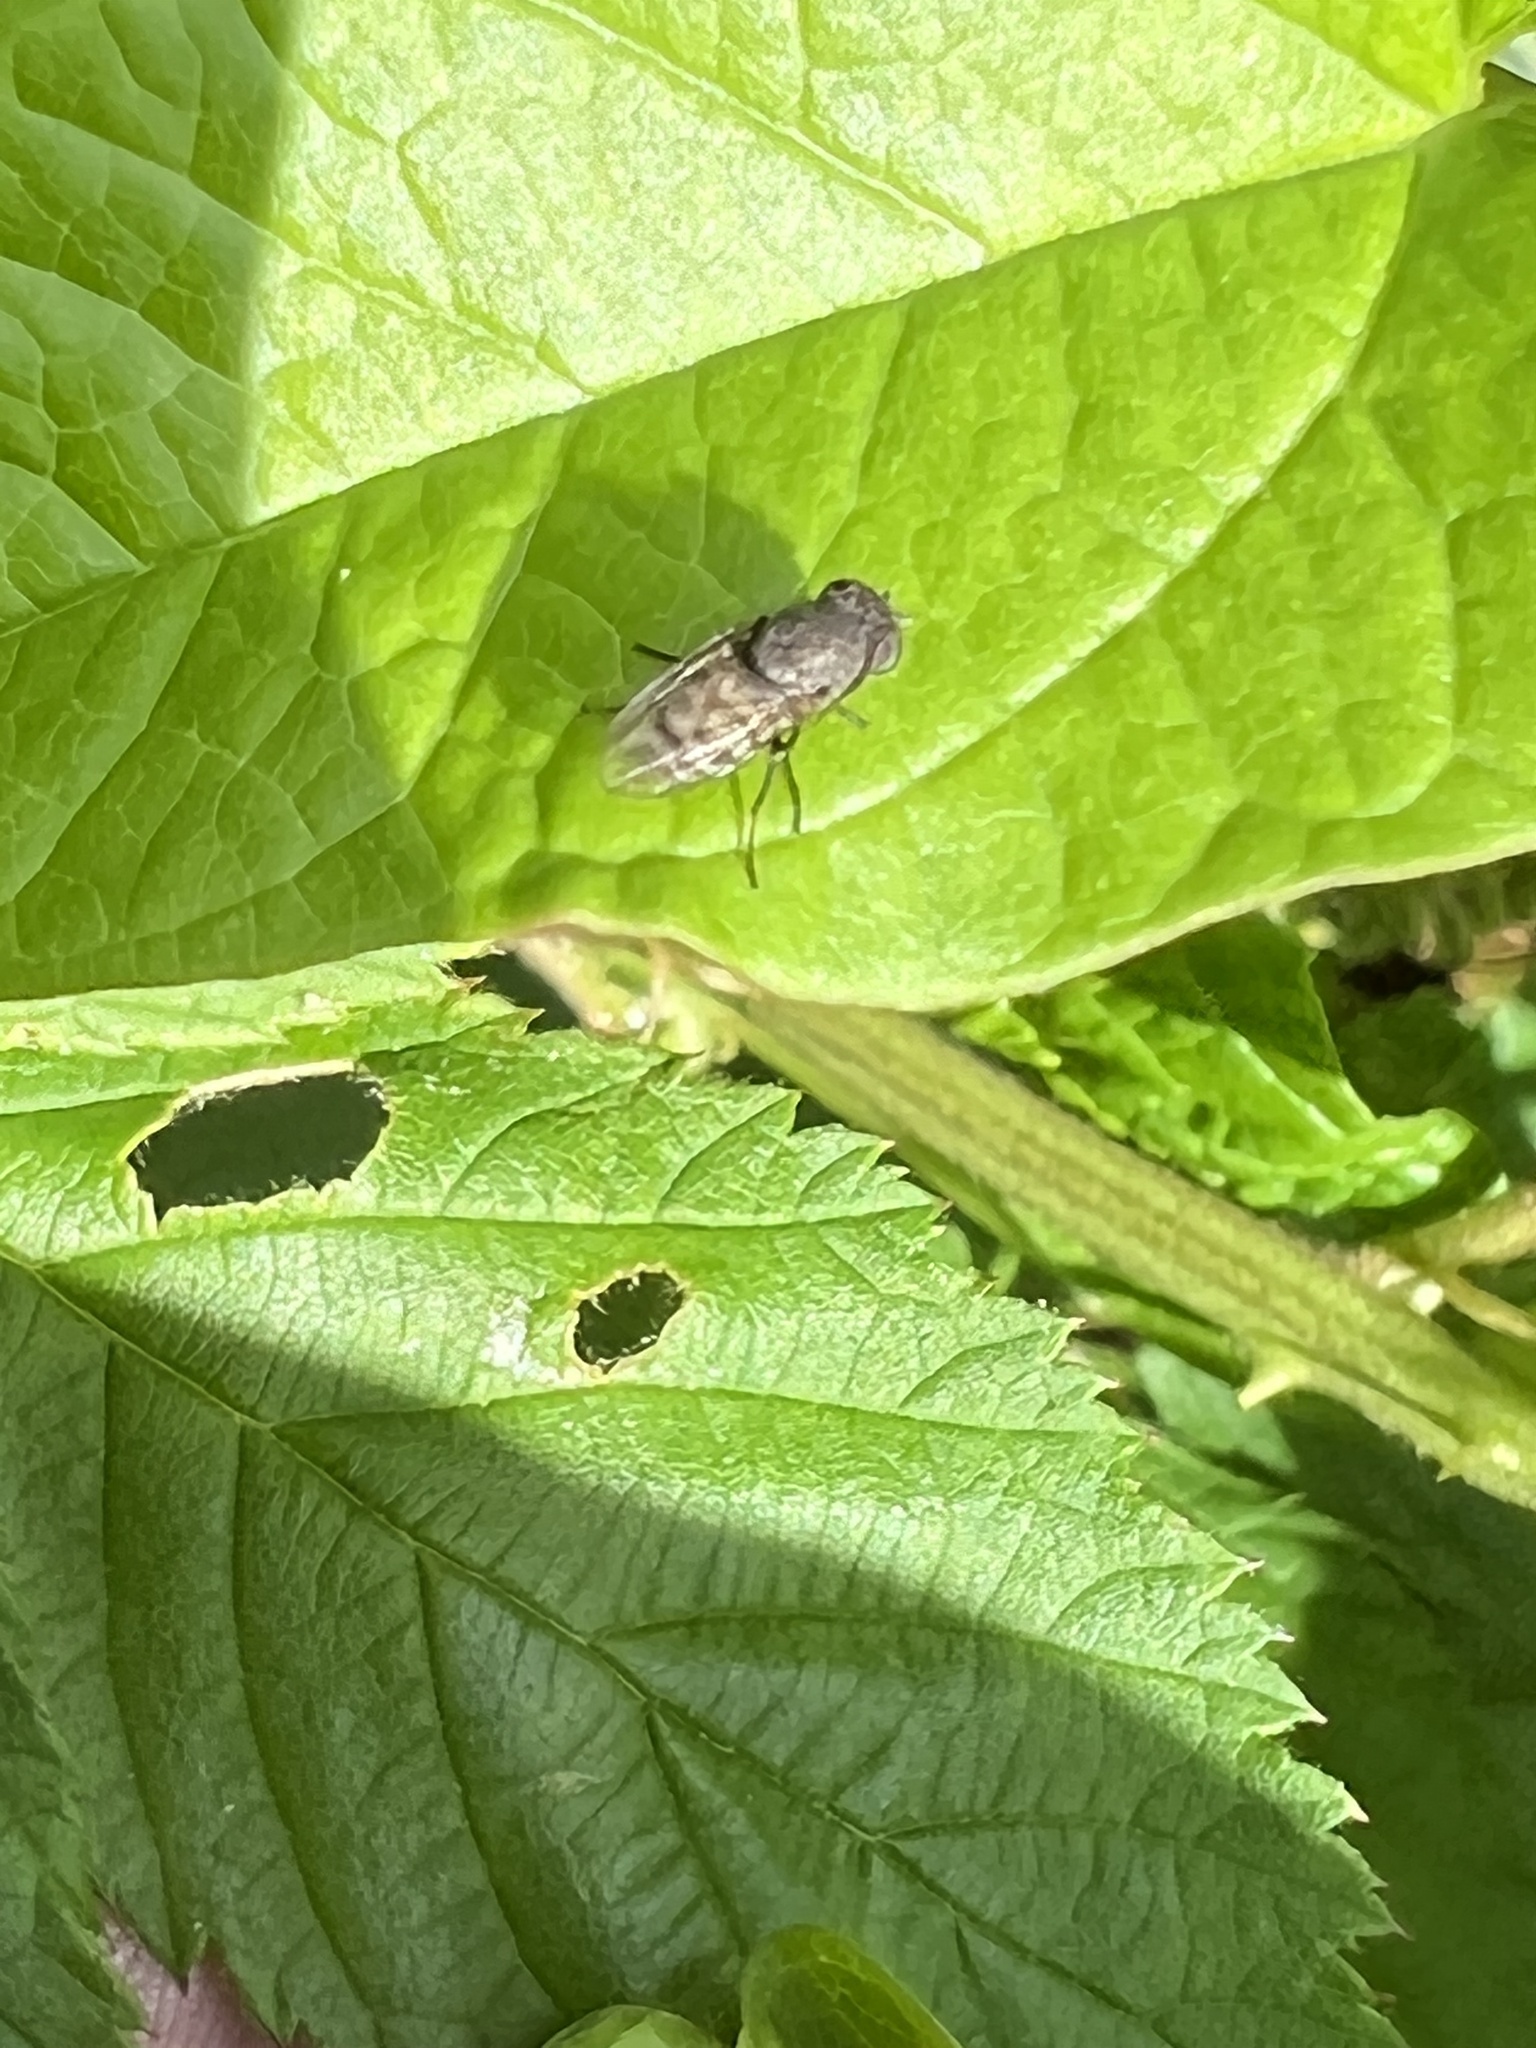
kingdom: Animalia
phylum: Arthropoda
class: Insecta
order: Diptera
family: Ephydridae
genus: Paralimna
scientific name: Paralimna punctipennis
